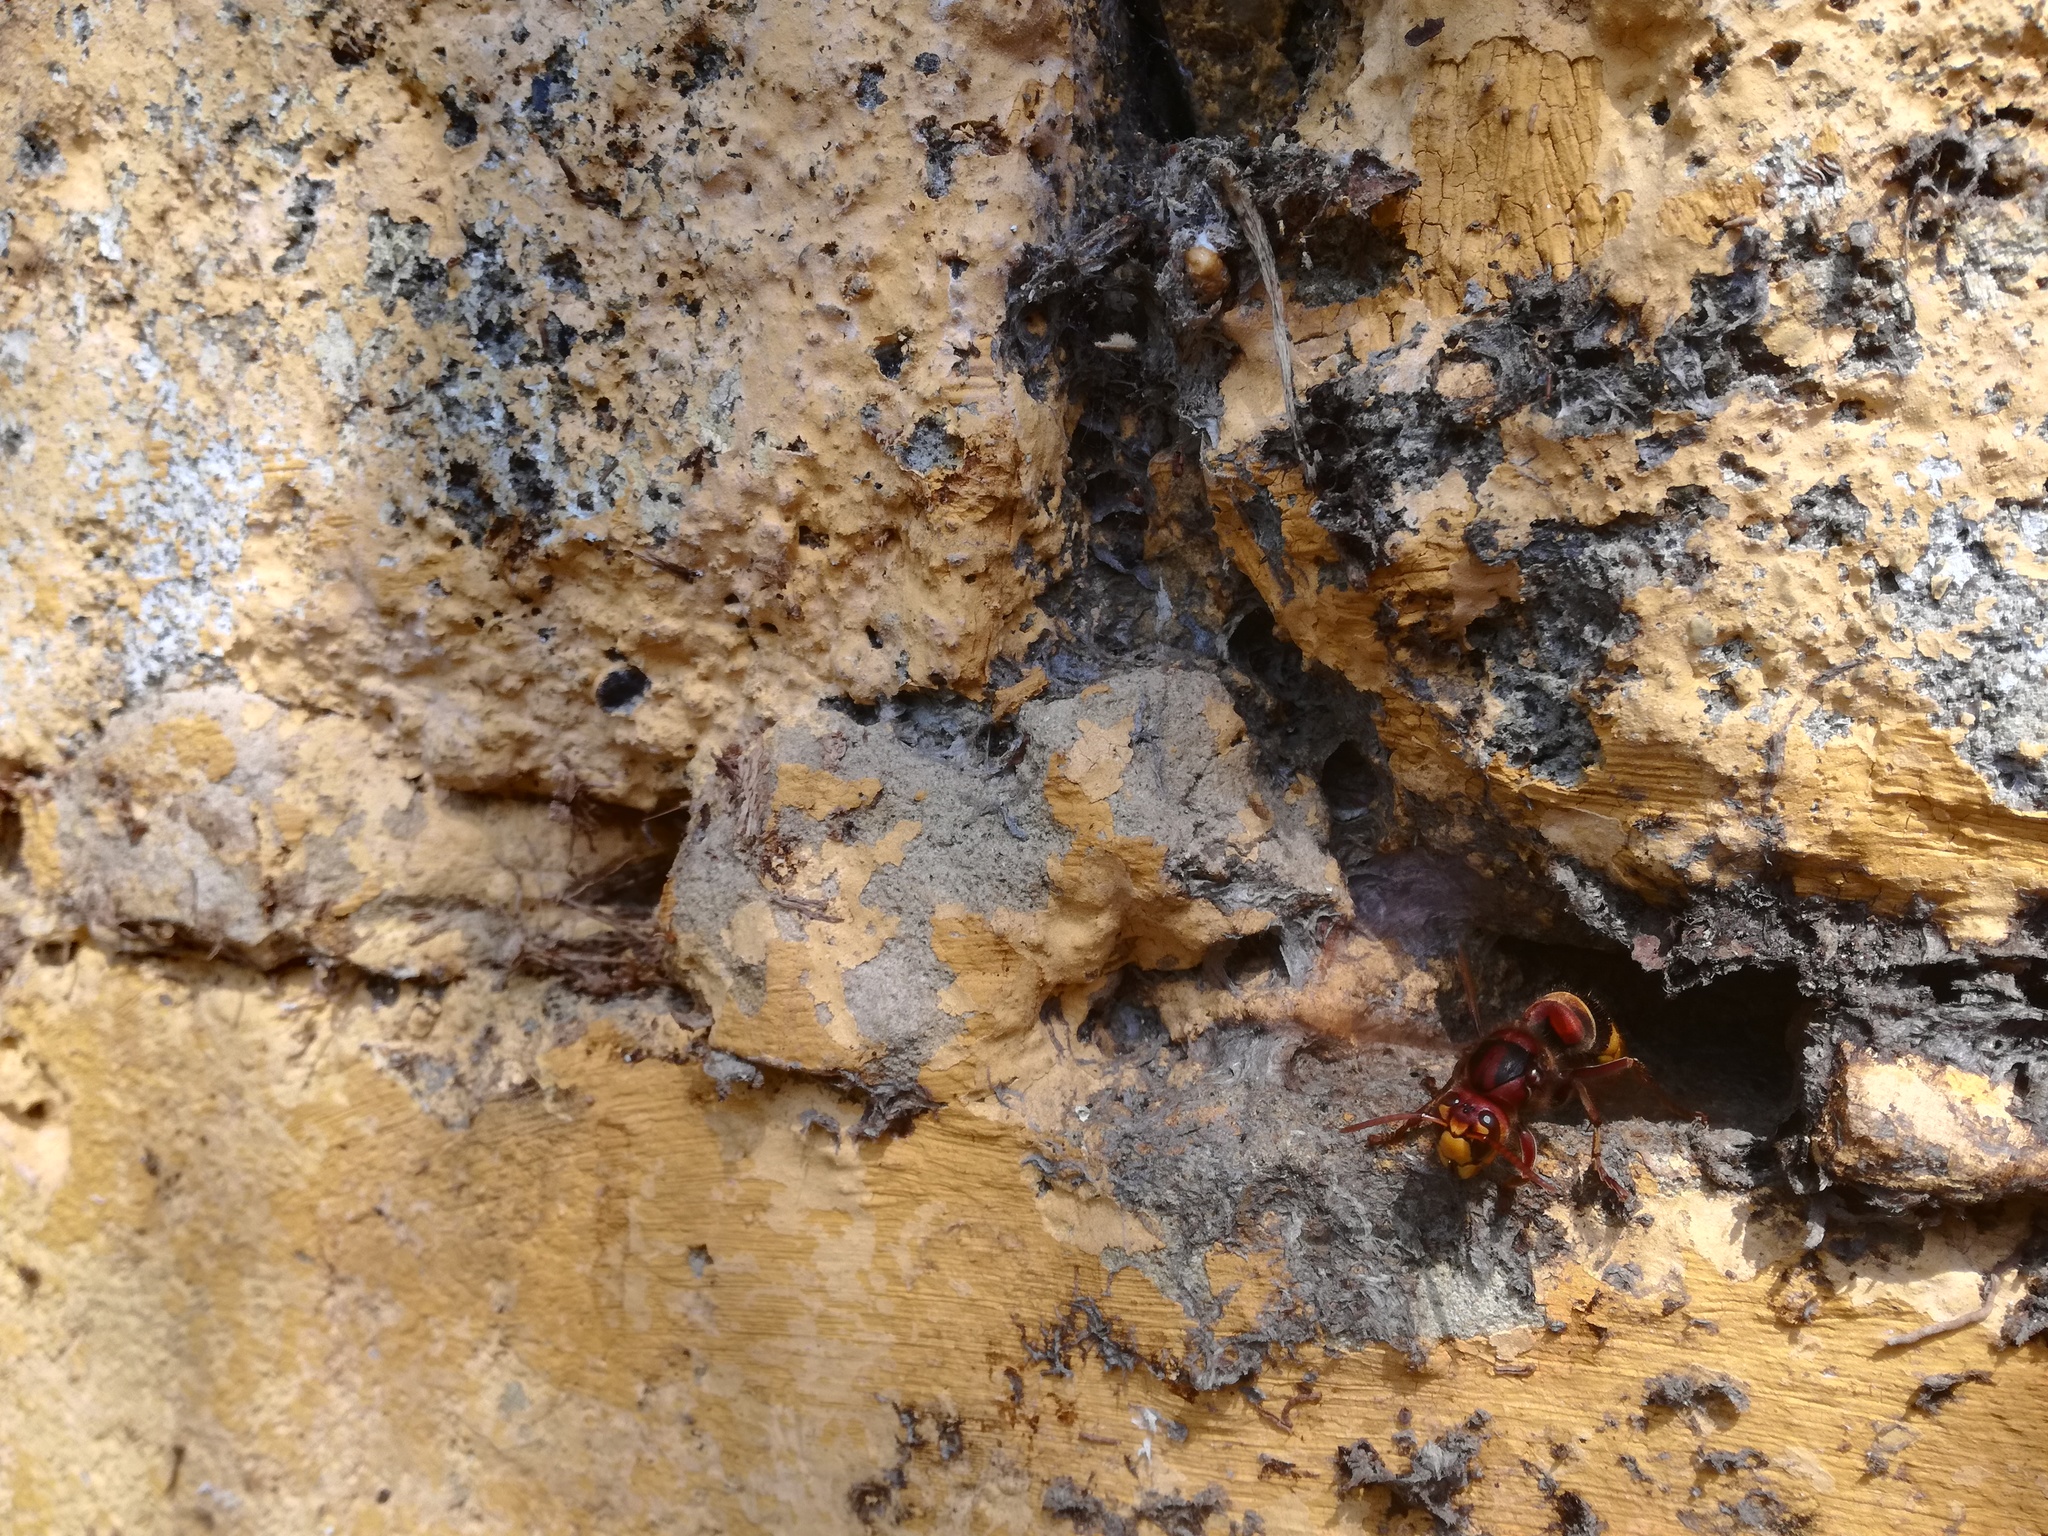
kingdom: Animalia
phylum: Arthropoda
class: Insecta
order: Hymenoptera
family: Vespidae
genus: Vespa
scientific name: Vespa crabro
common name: Hornet
